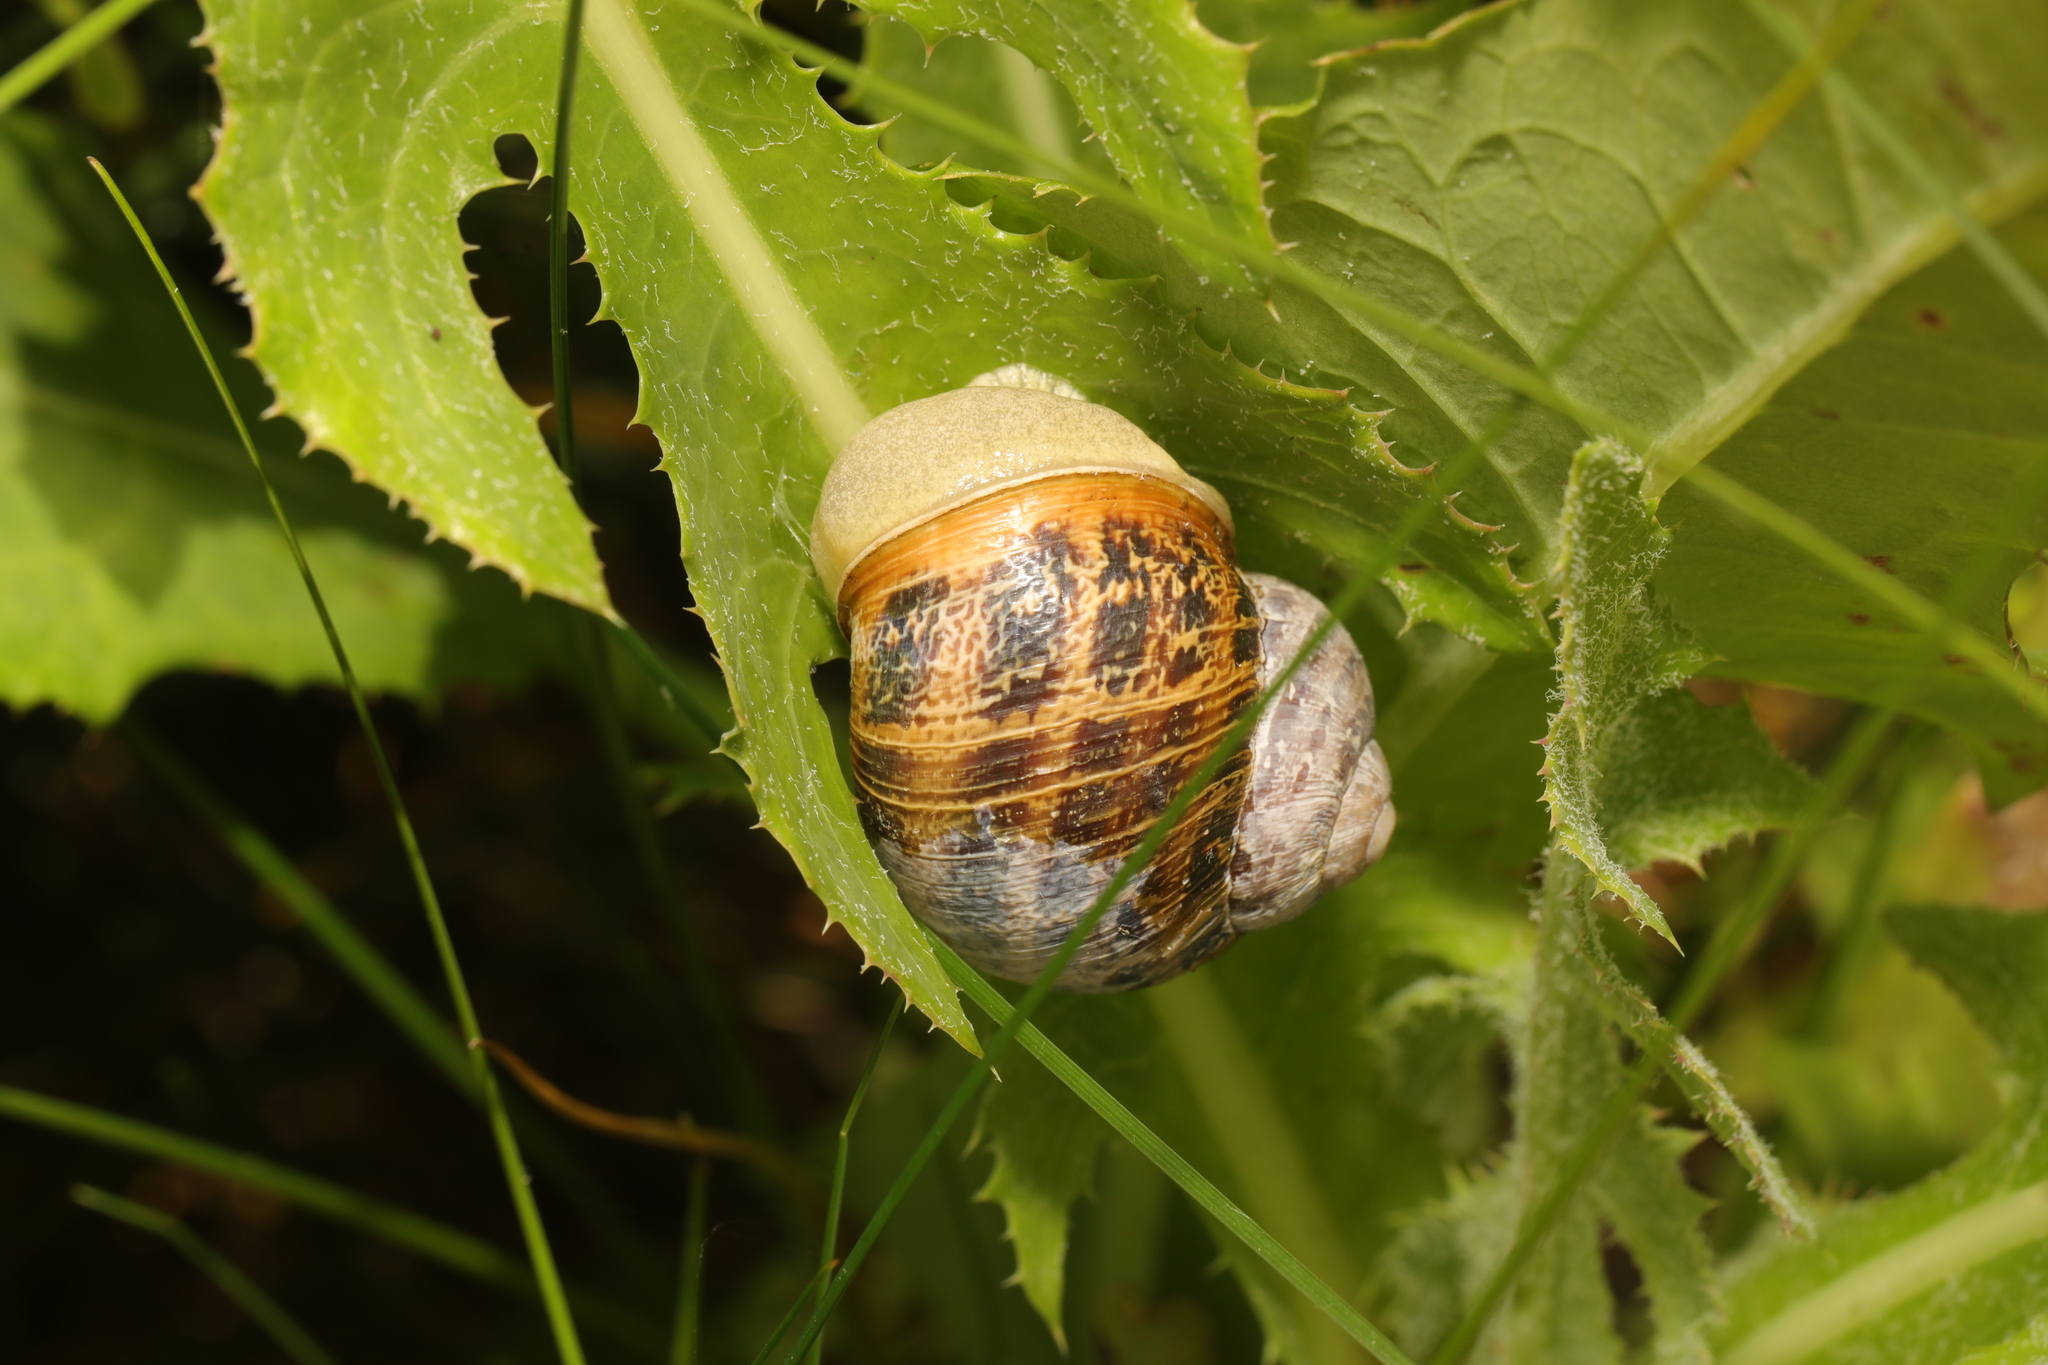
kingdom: Animalia
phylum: Mollusca
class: Gastropoda
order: Stylommatophora
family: Helicidae
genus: Cornu
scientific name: Cornu aspersum
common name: Brown garden snail
